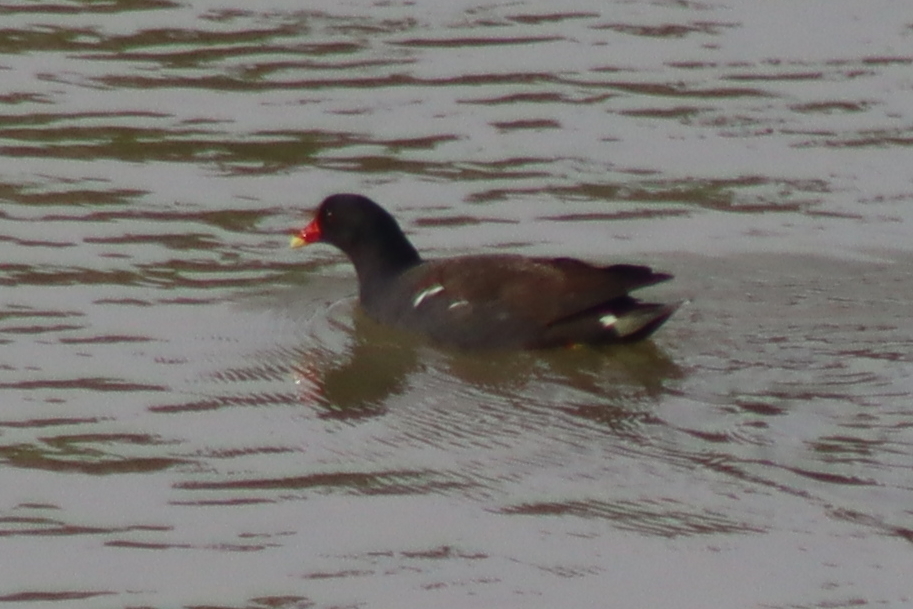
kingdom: Animalia
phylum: Chordata
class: Aves
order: Gruiformes
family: Rallidae
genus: Gallinula
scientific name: Gallinula chloropus
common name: Common moorhen
